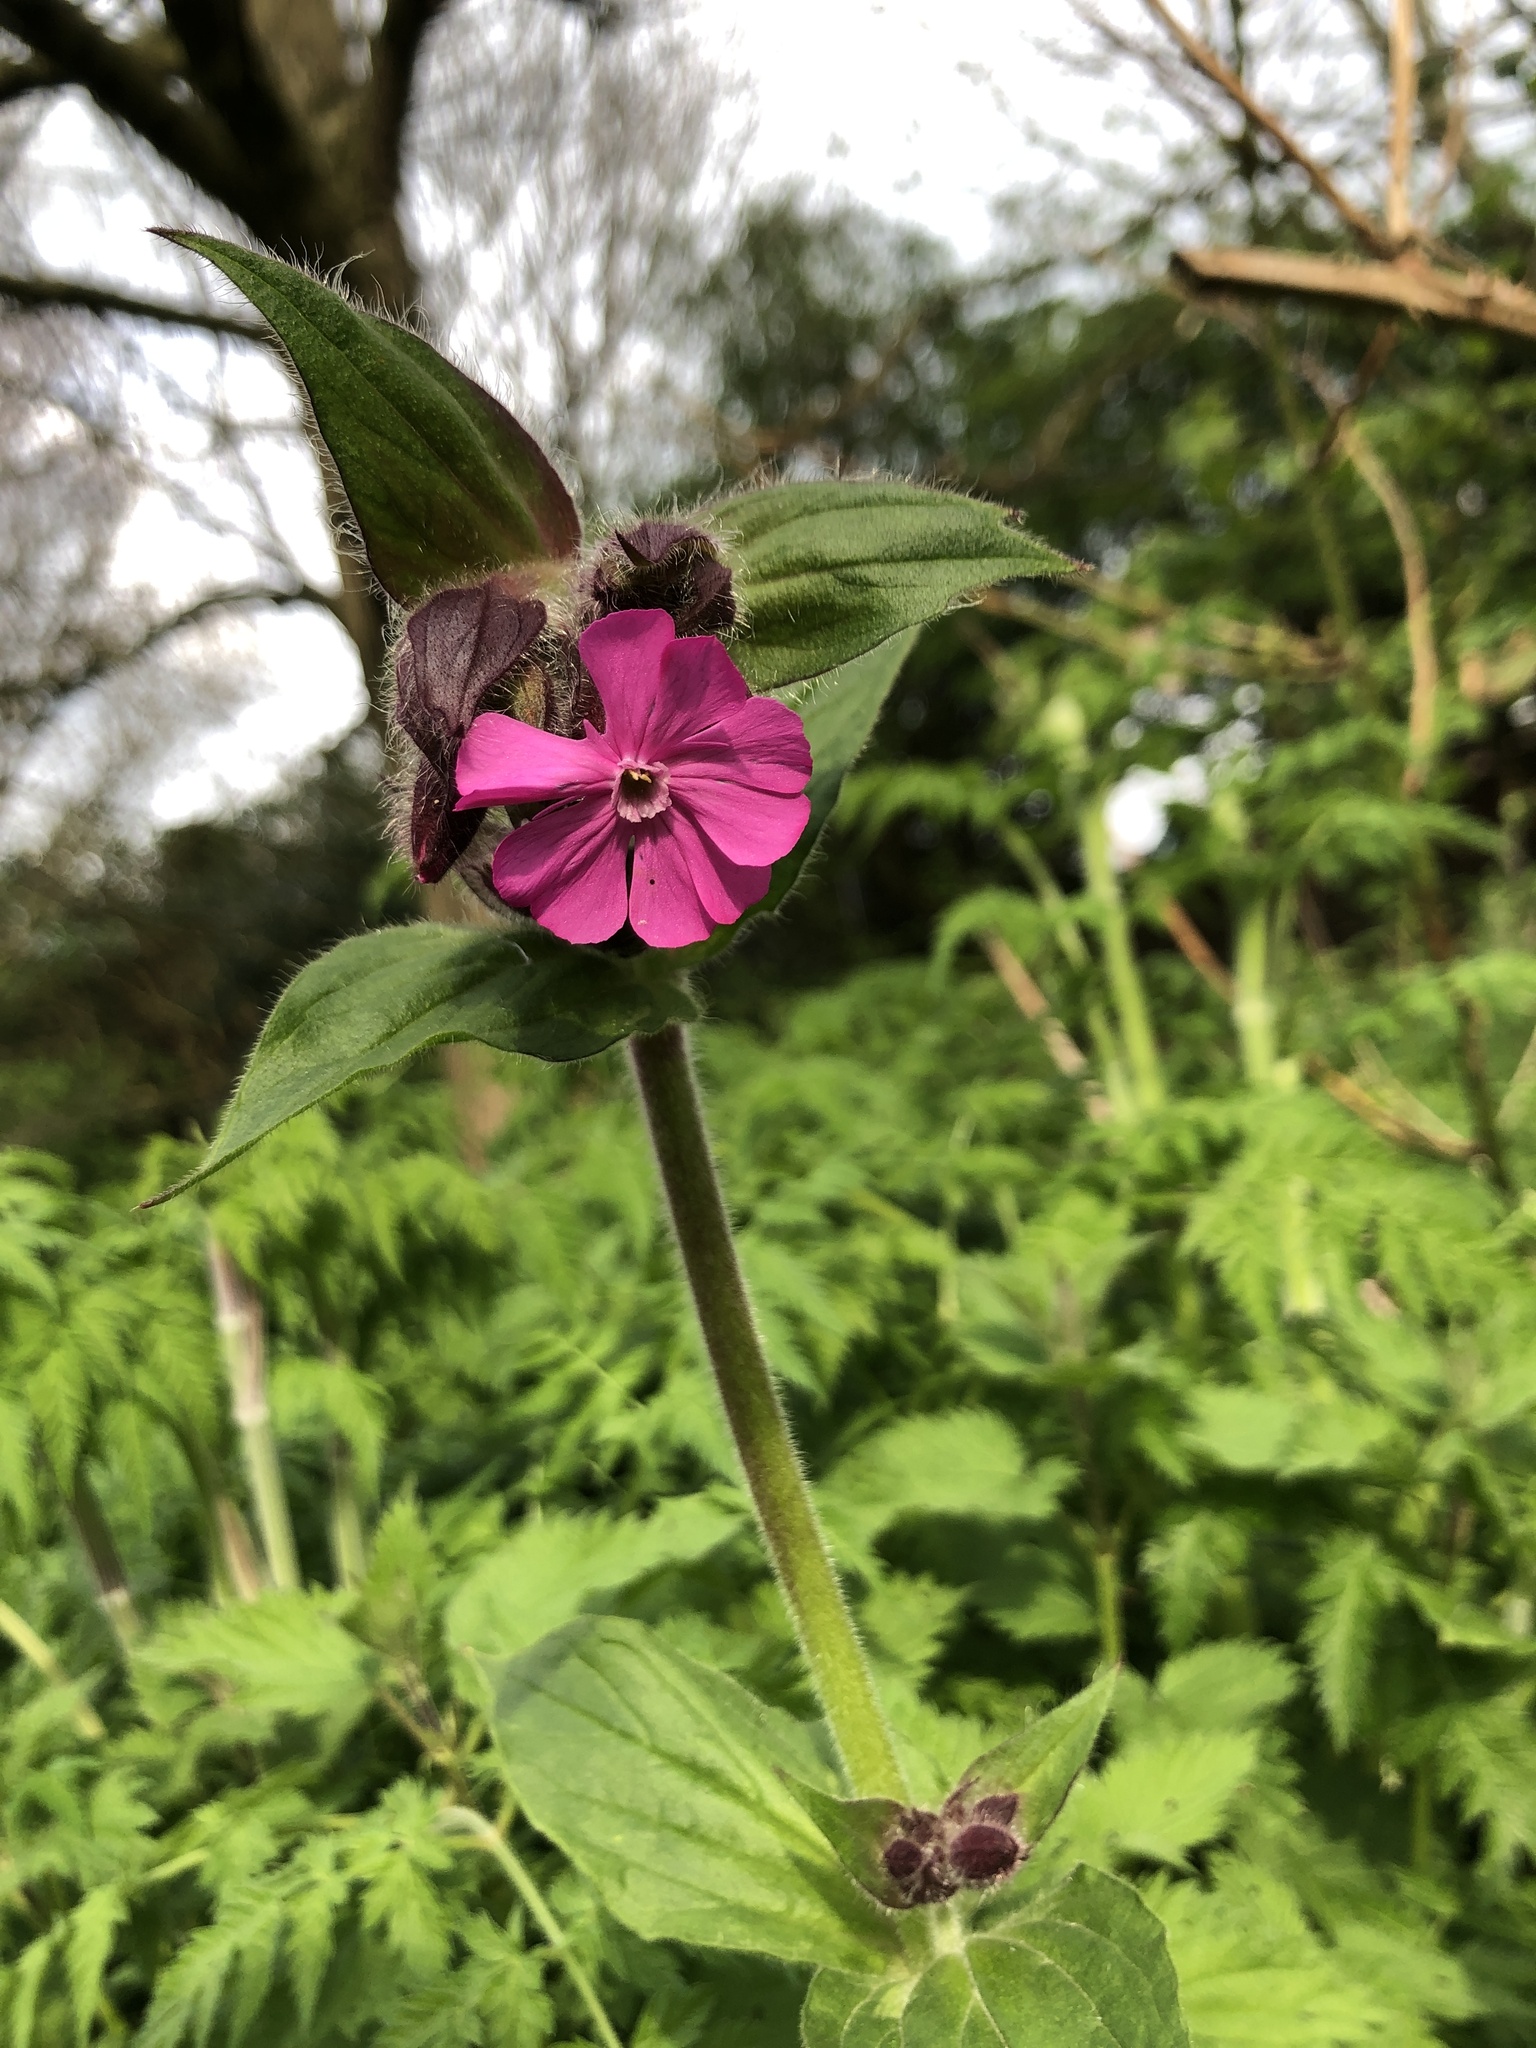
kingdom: Plantae
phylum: Tracheophyta
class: Magnoliopsida
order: Caryophyllales
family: Caryophyllaceae
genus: Silene
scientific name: Silene dioica
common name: Red campion
